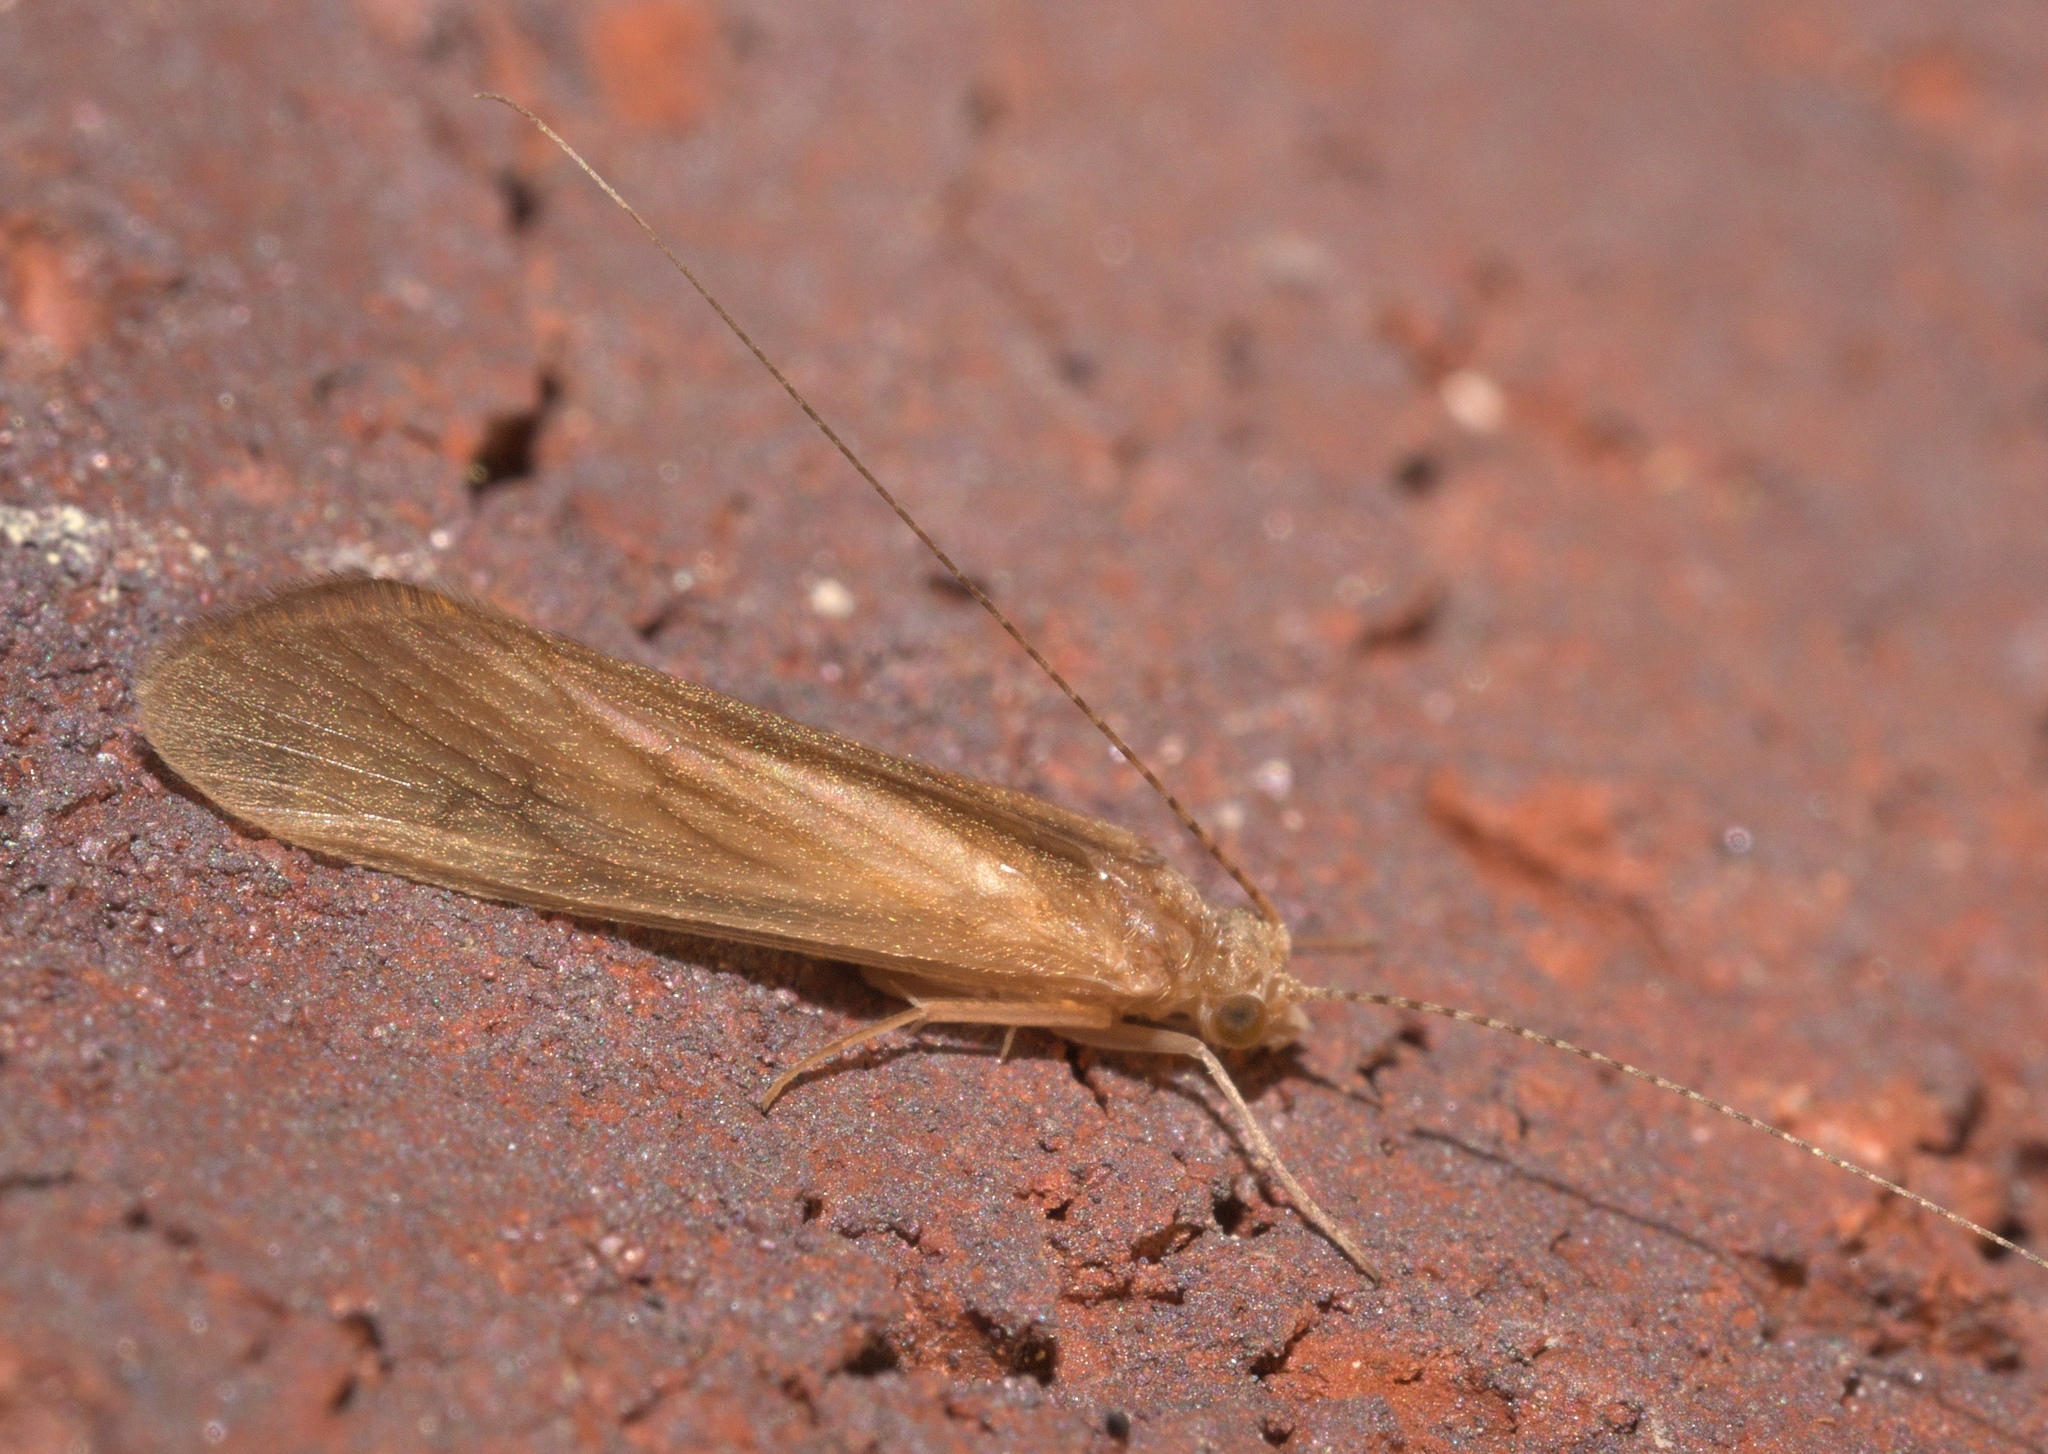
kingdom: Animalia
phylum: Arthropoda
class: Insecta
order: Trichoptera
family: Hydropsychidae
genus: Potamyia
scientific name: Potamyia flava
